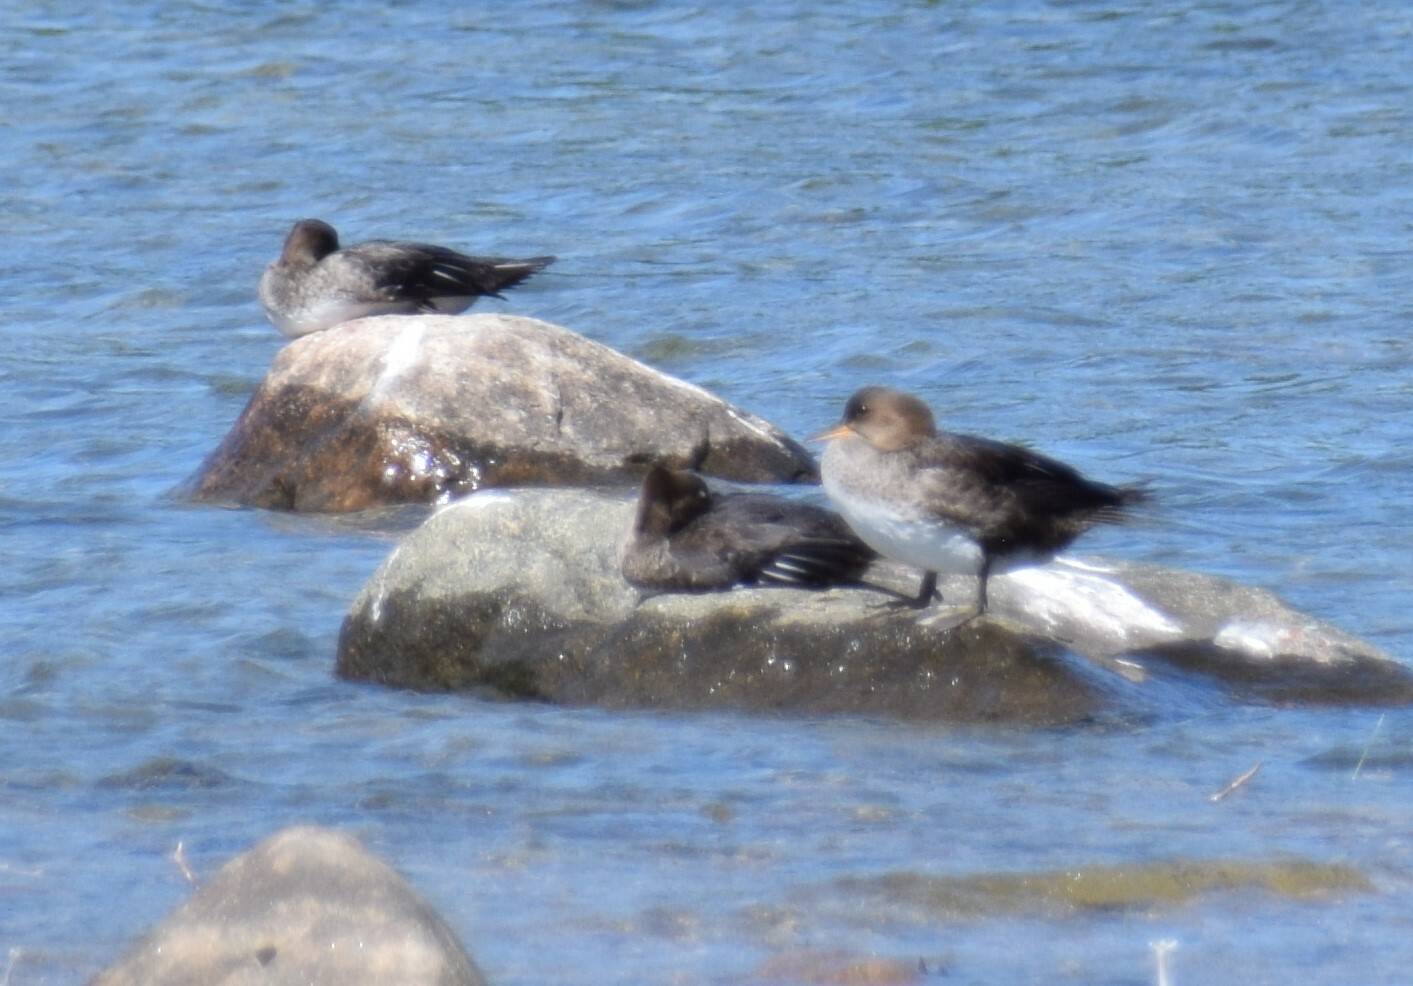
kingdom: Animalia
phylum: Chordata
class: Aves
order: Anseriformes
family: Anatidae
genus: Lophodytes
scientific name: Lophodytes cucullatus
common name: Hooded merganser
